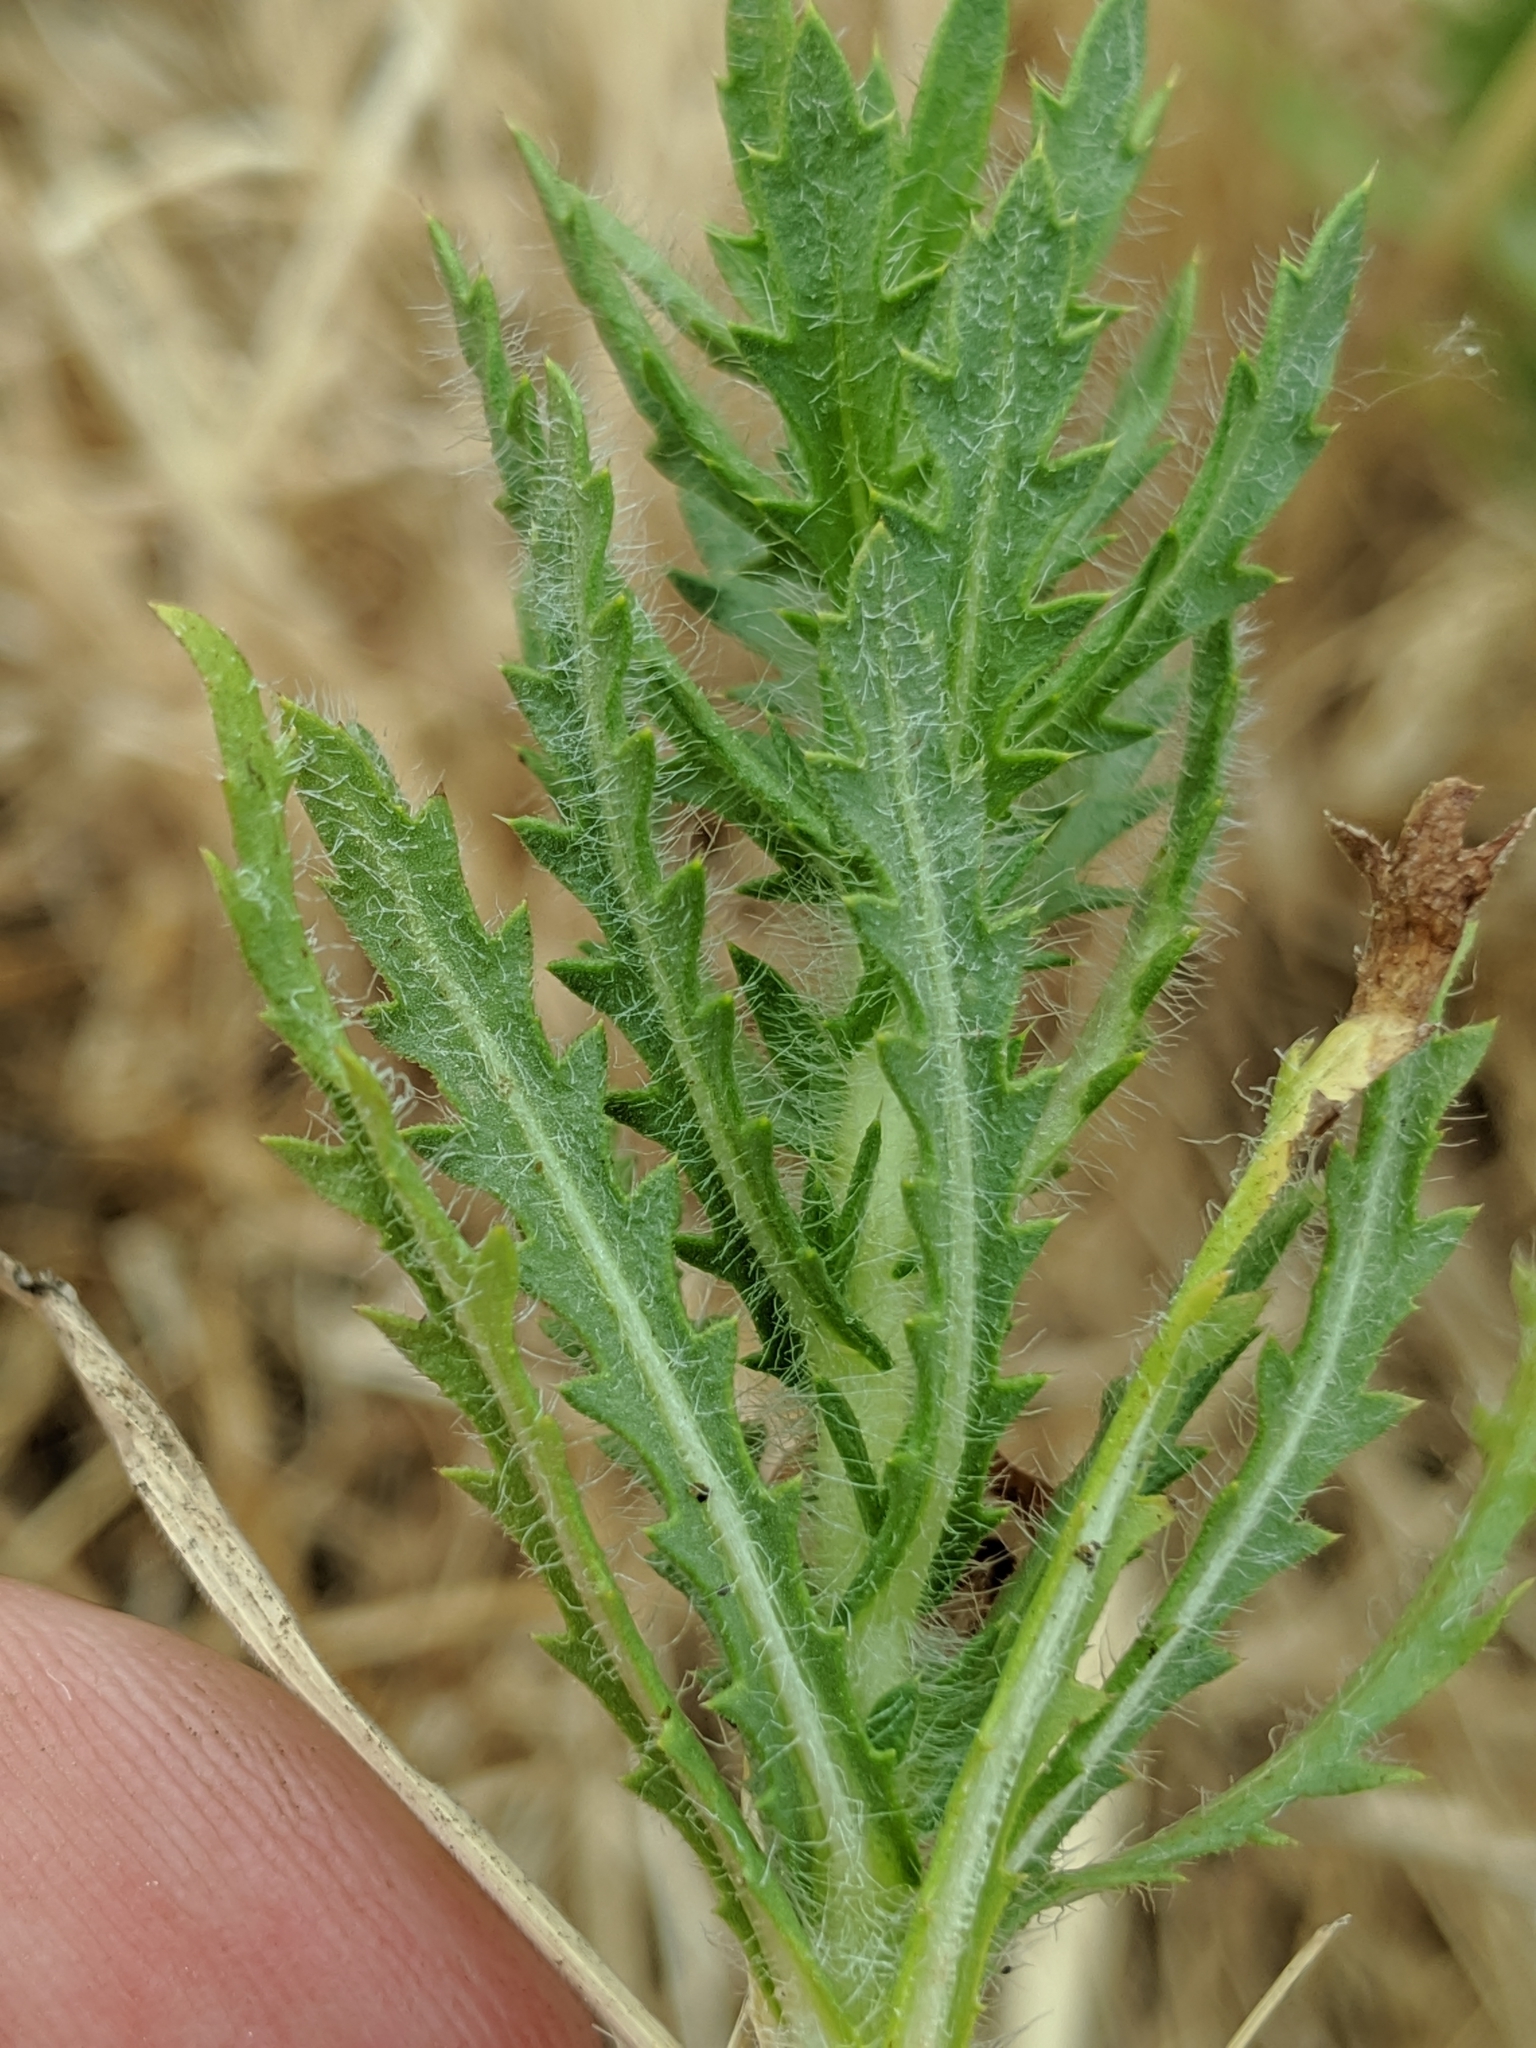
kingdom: Plantae
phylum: Tracheophyta
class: Magnoliopsida
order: Asterales
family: Asteraceae
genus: Centromadia
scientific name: Centromadia pungens
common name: Common spikeweed
